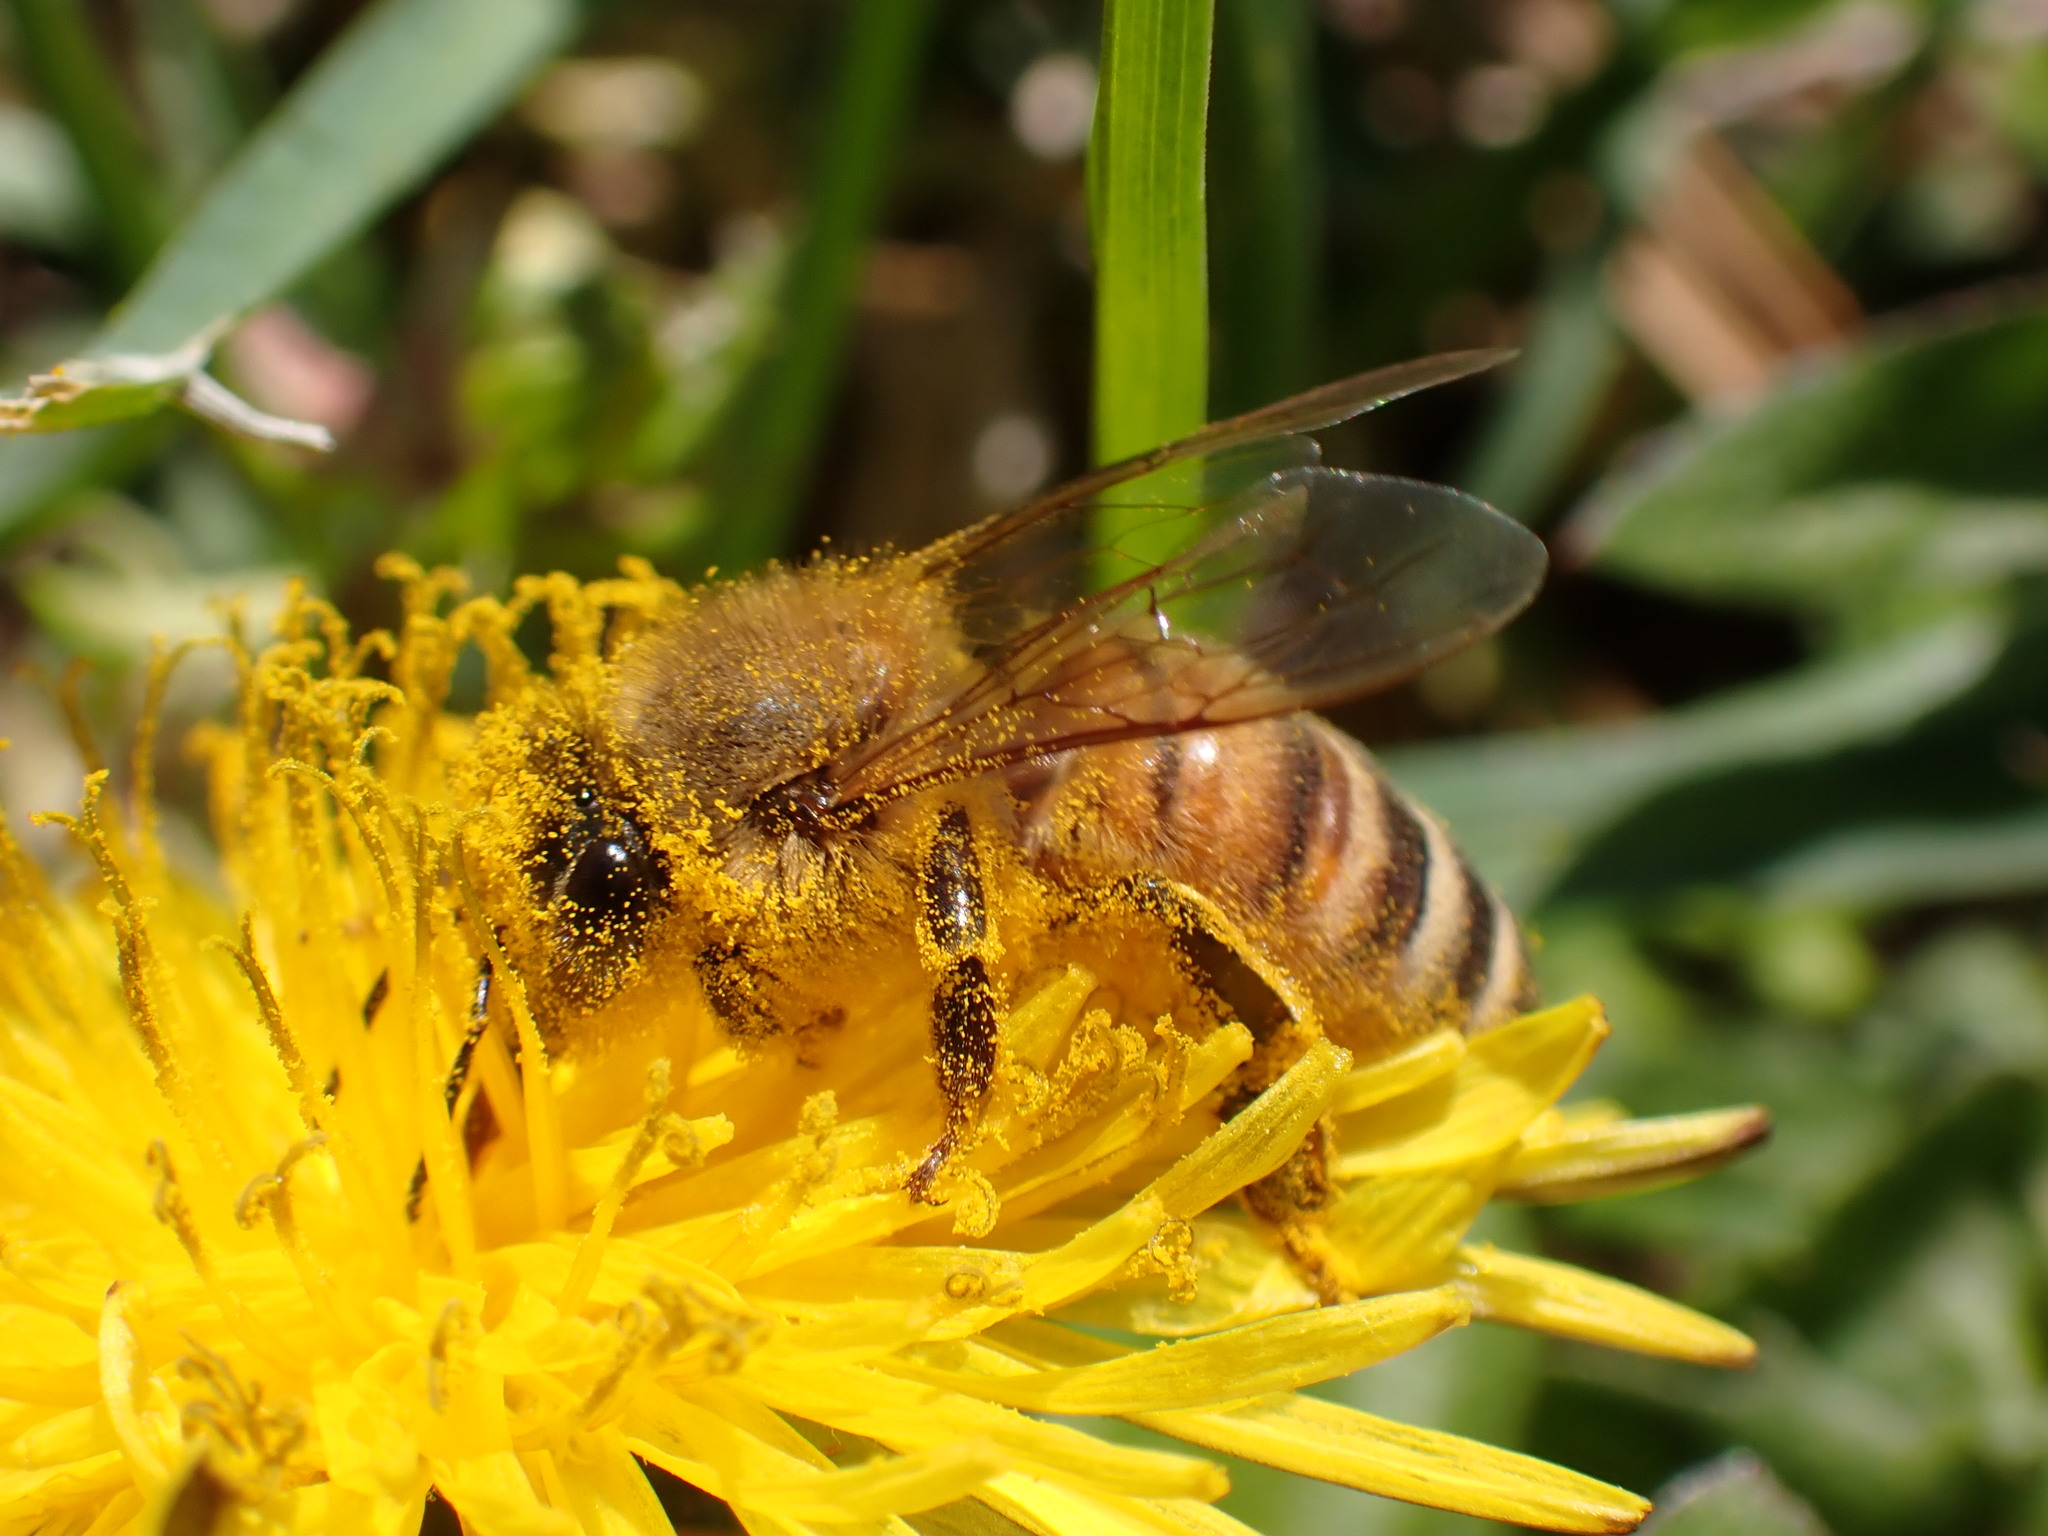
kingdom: Animalia
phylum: Arthropoda
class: Insecta
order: Hymenoptera
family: Apidae
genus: Apis
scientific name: Apis mellifera
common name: Honey bee
